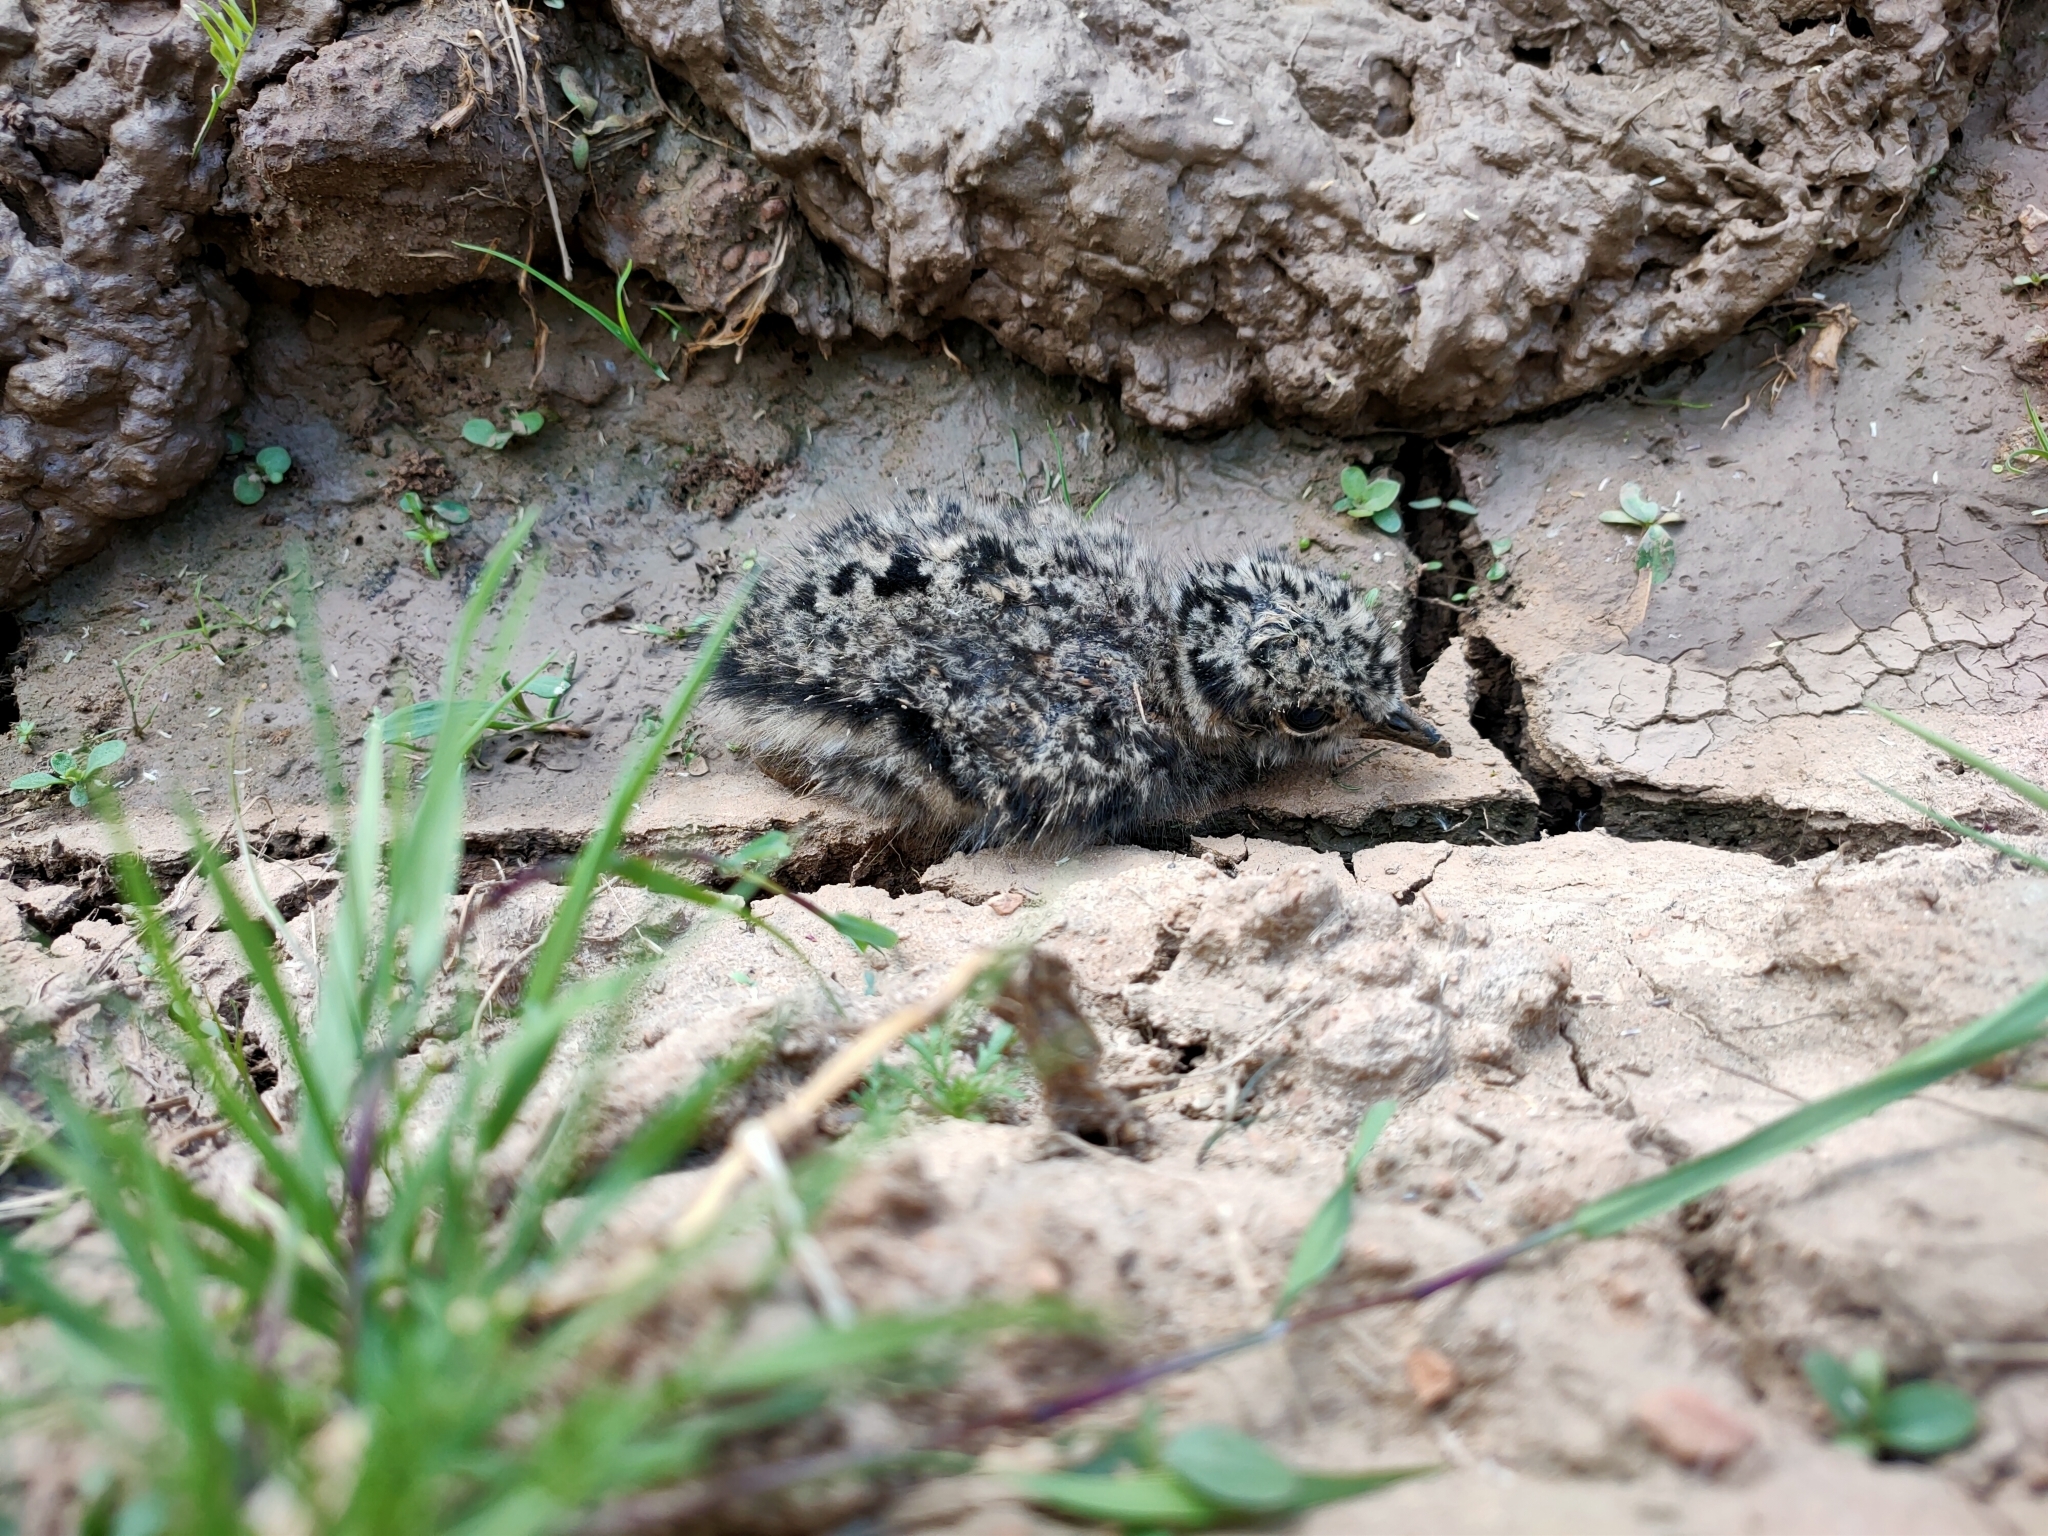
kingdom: Animalia
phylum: Chordata
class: Aves
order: Charadriiformes
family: Charadriidae
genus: Vanellus
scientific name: Vanellus vanellus
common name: Northern lapwing
